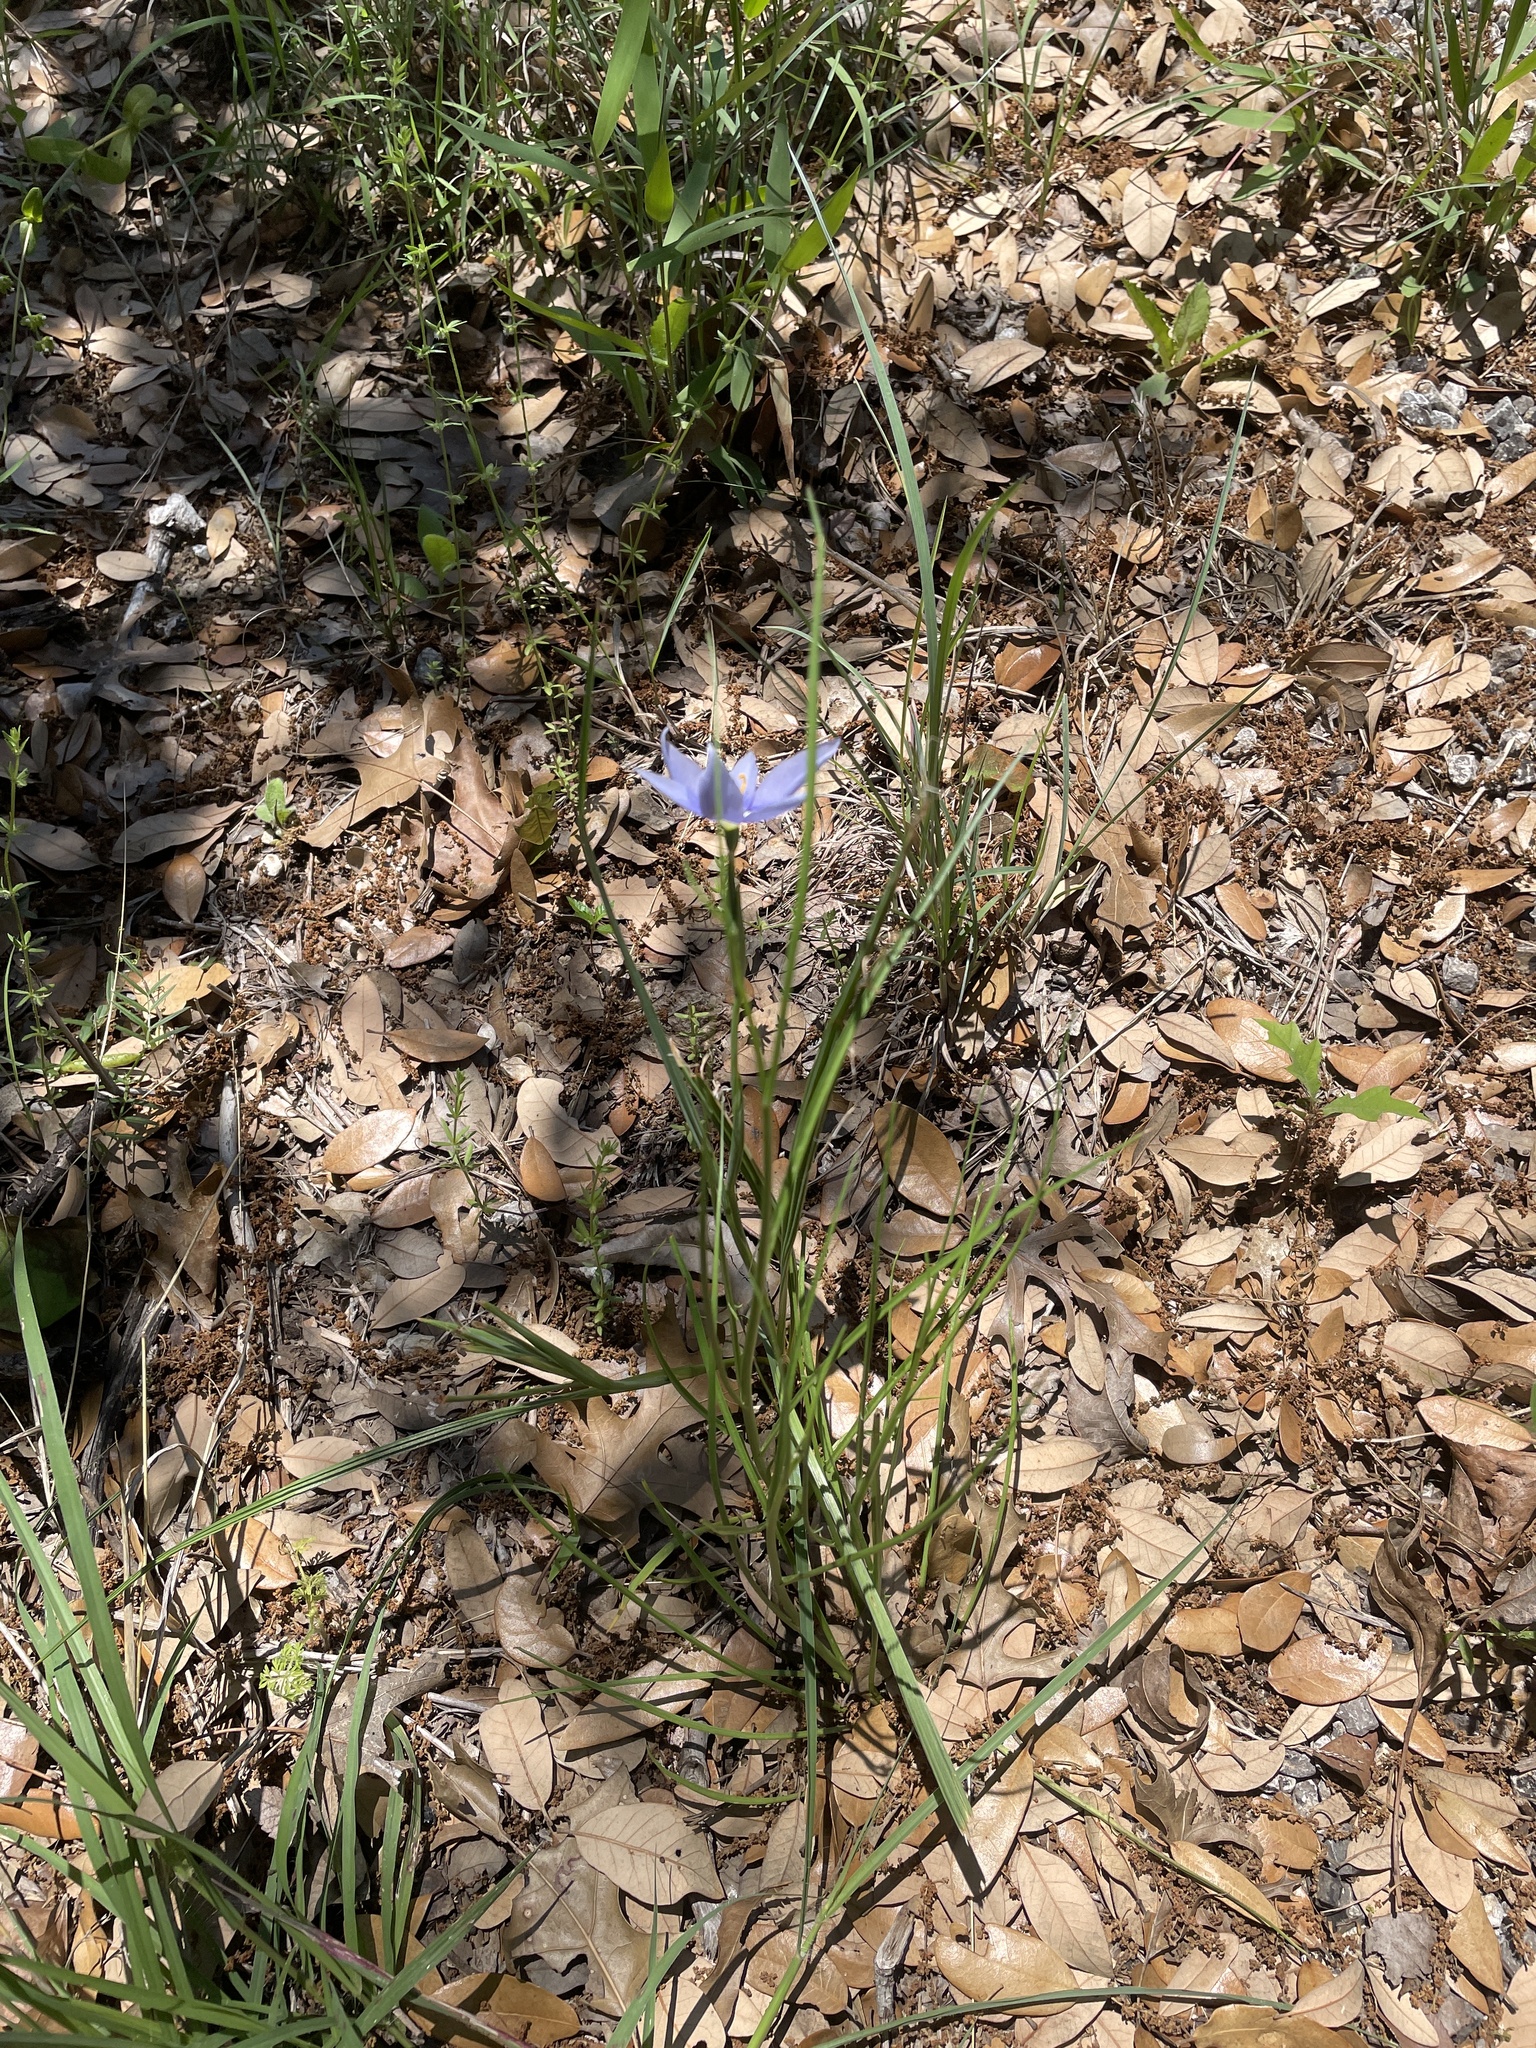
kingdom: Plantae
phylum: Tracheophyta
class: Liliopsida
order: Asparagales
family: Iridaceae
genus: Nemastylis
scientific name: Nemastylis geminiflora
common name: Prairie celestial
